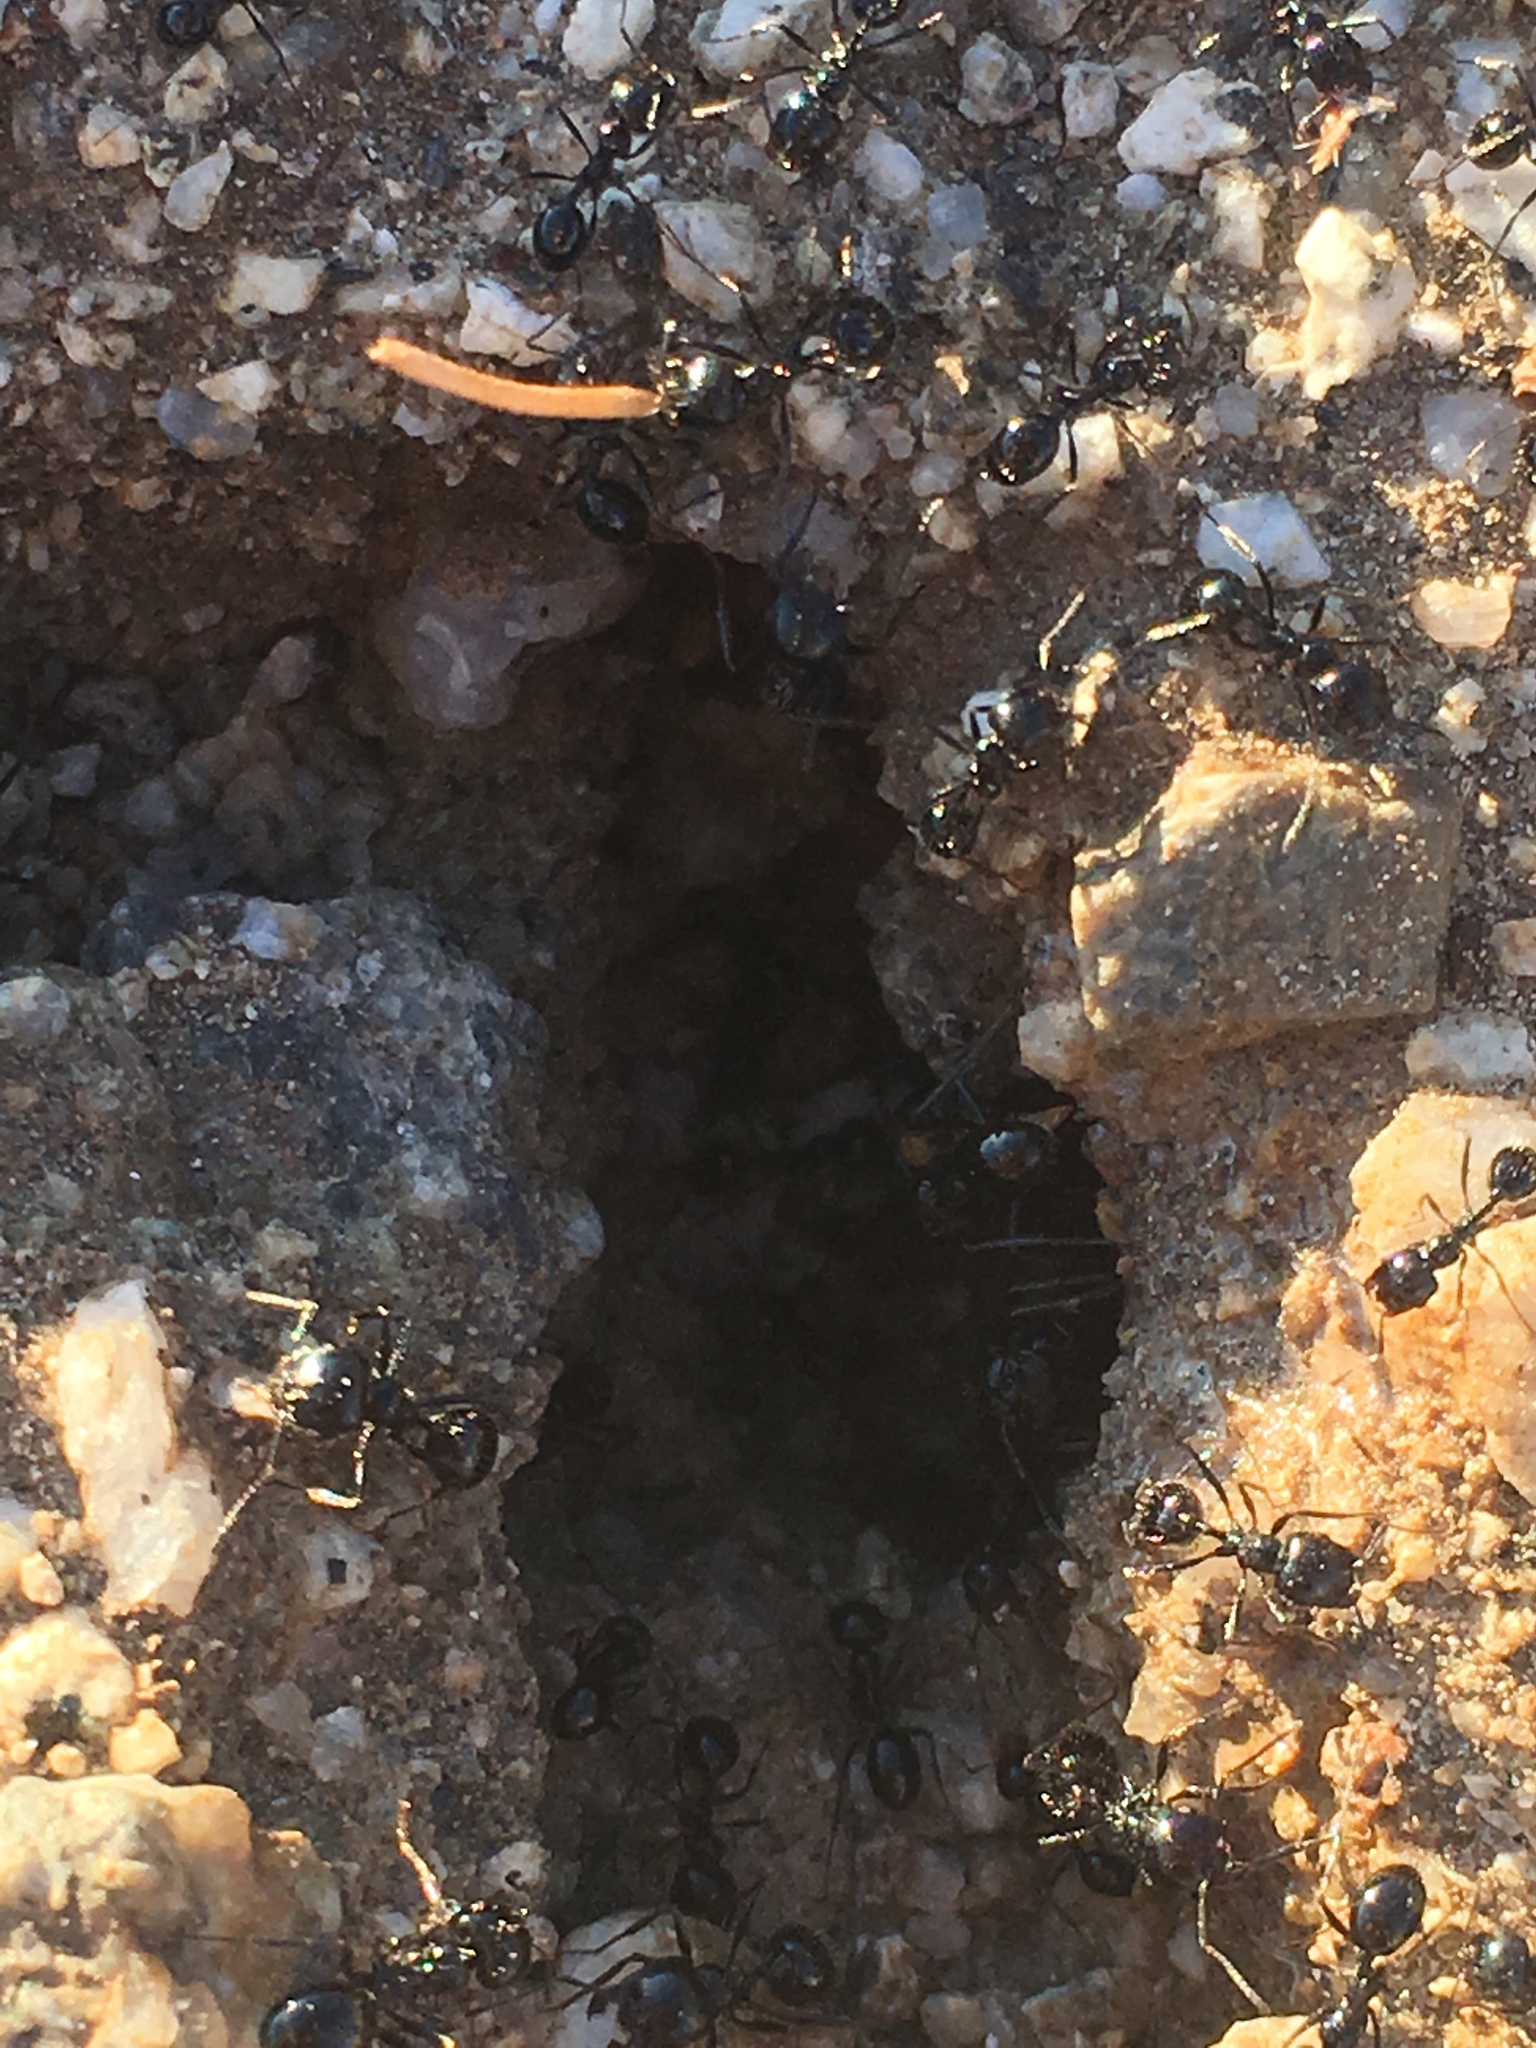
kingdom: Animalia
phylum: Arthropoda
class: Insecta
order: Hymenoptera
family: Formicidae
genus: Messor
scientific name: Messor pergandei
